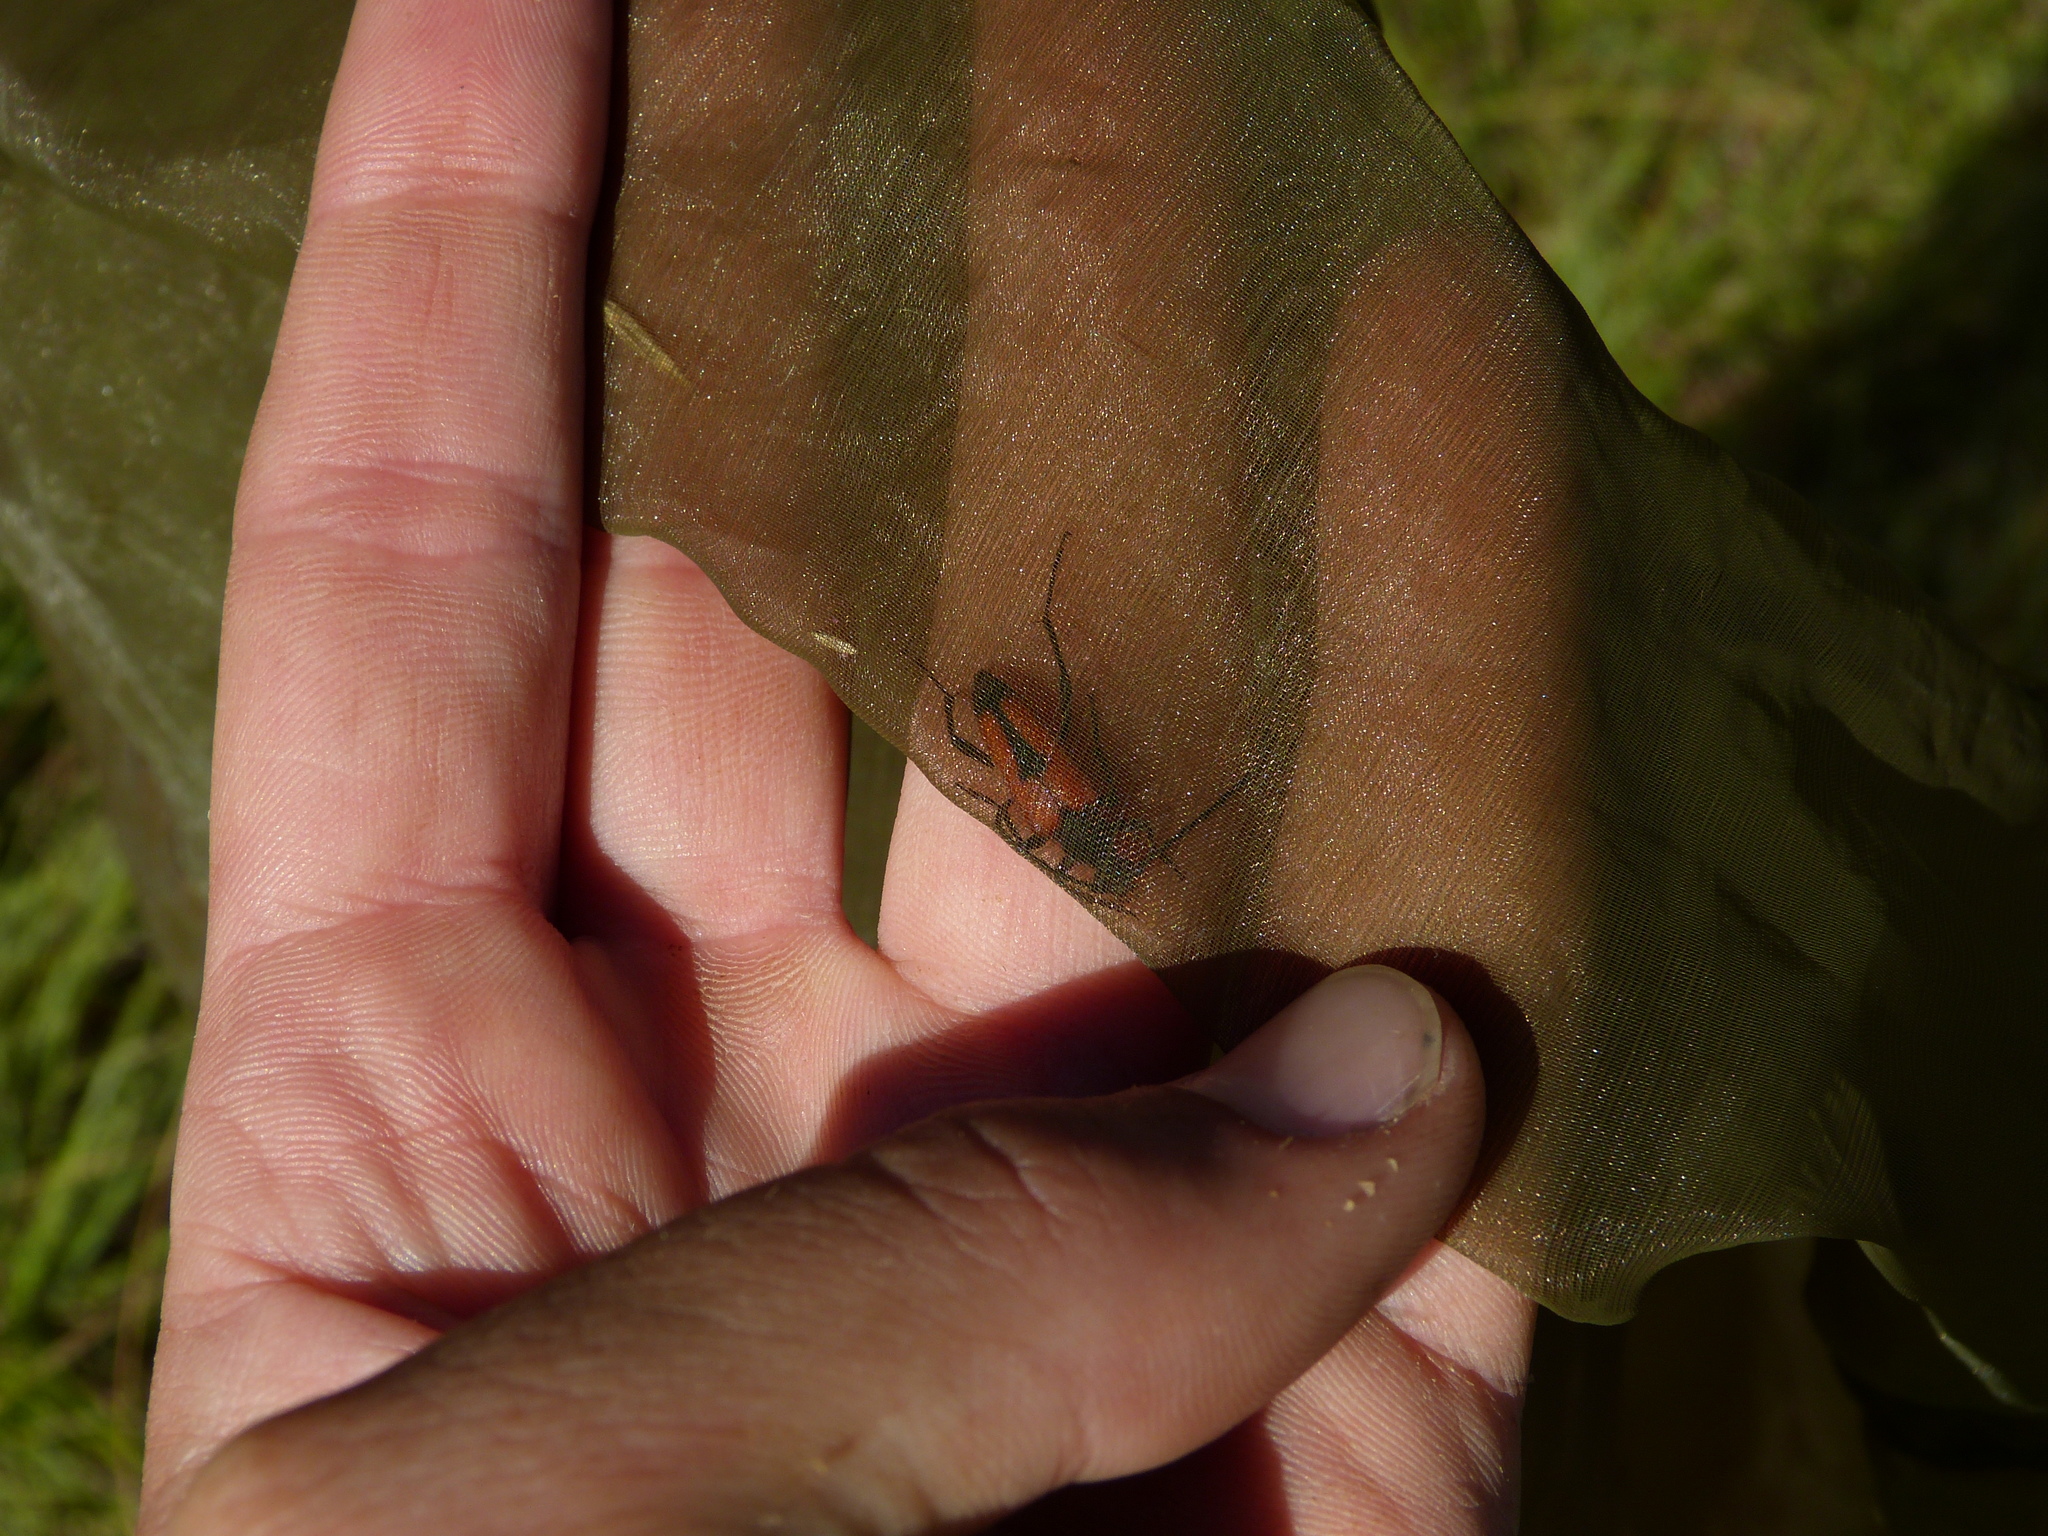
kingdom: Animalia
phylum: Arthropoda
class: Insecta
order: Coleoptera
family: Cerambycidae
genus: Stictoleptura
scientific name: Stictoleptura cordigera
